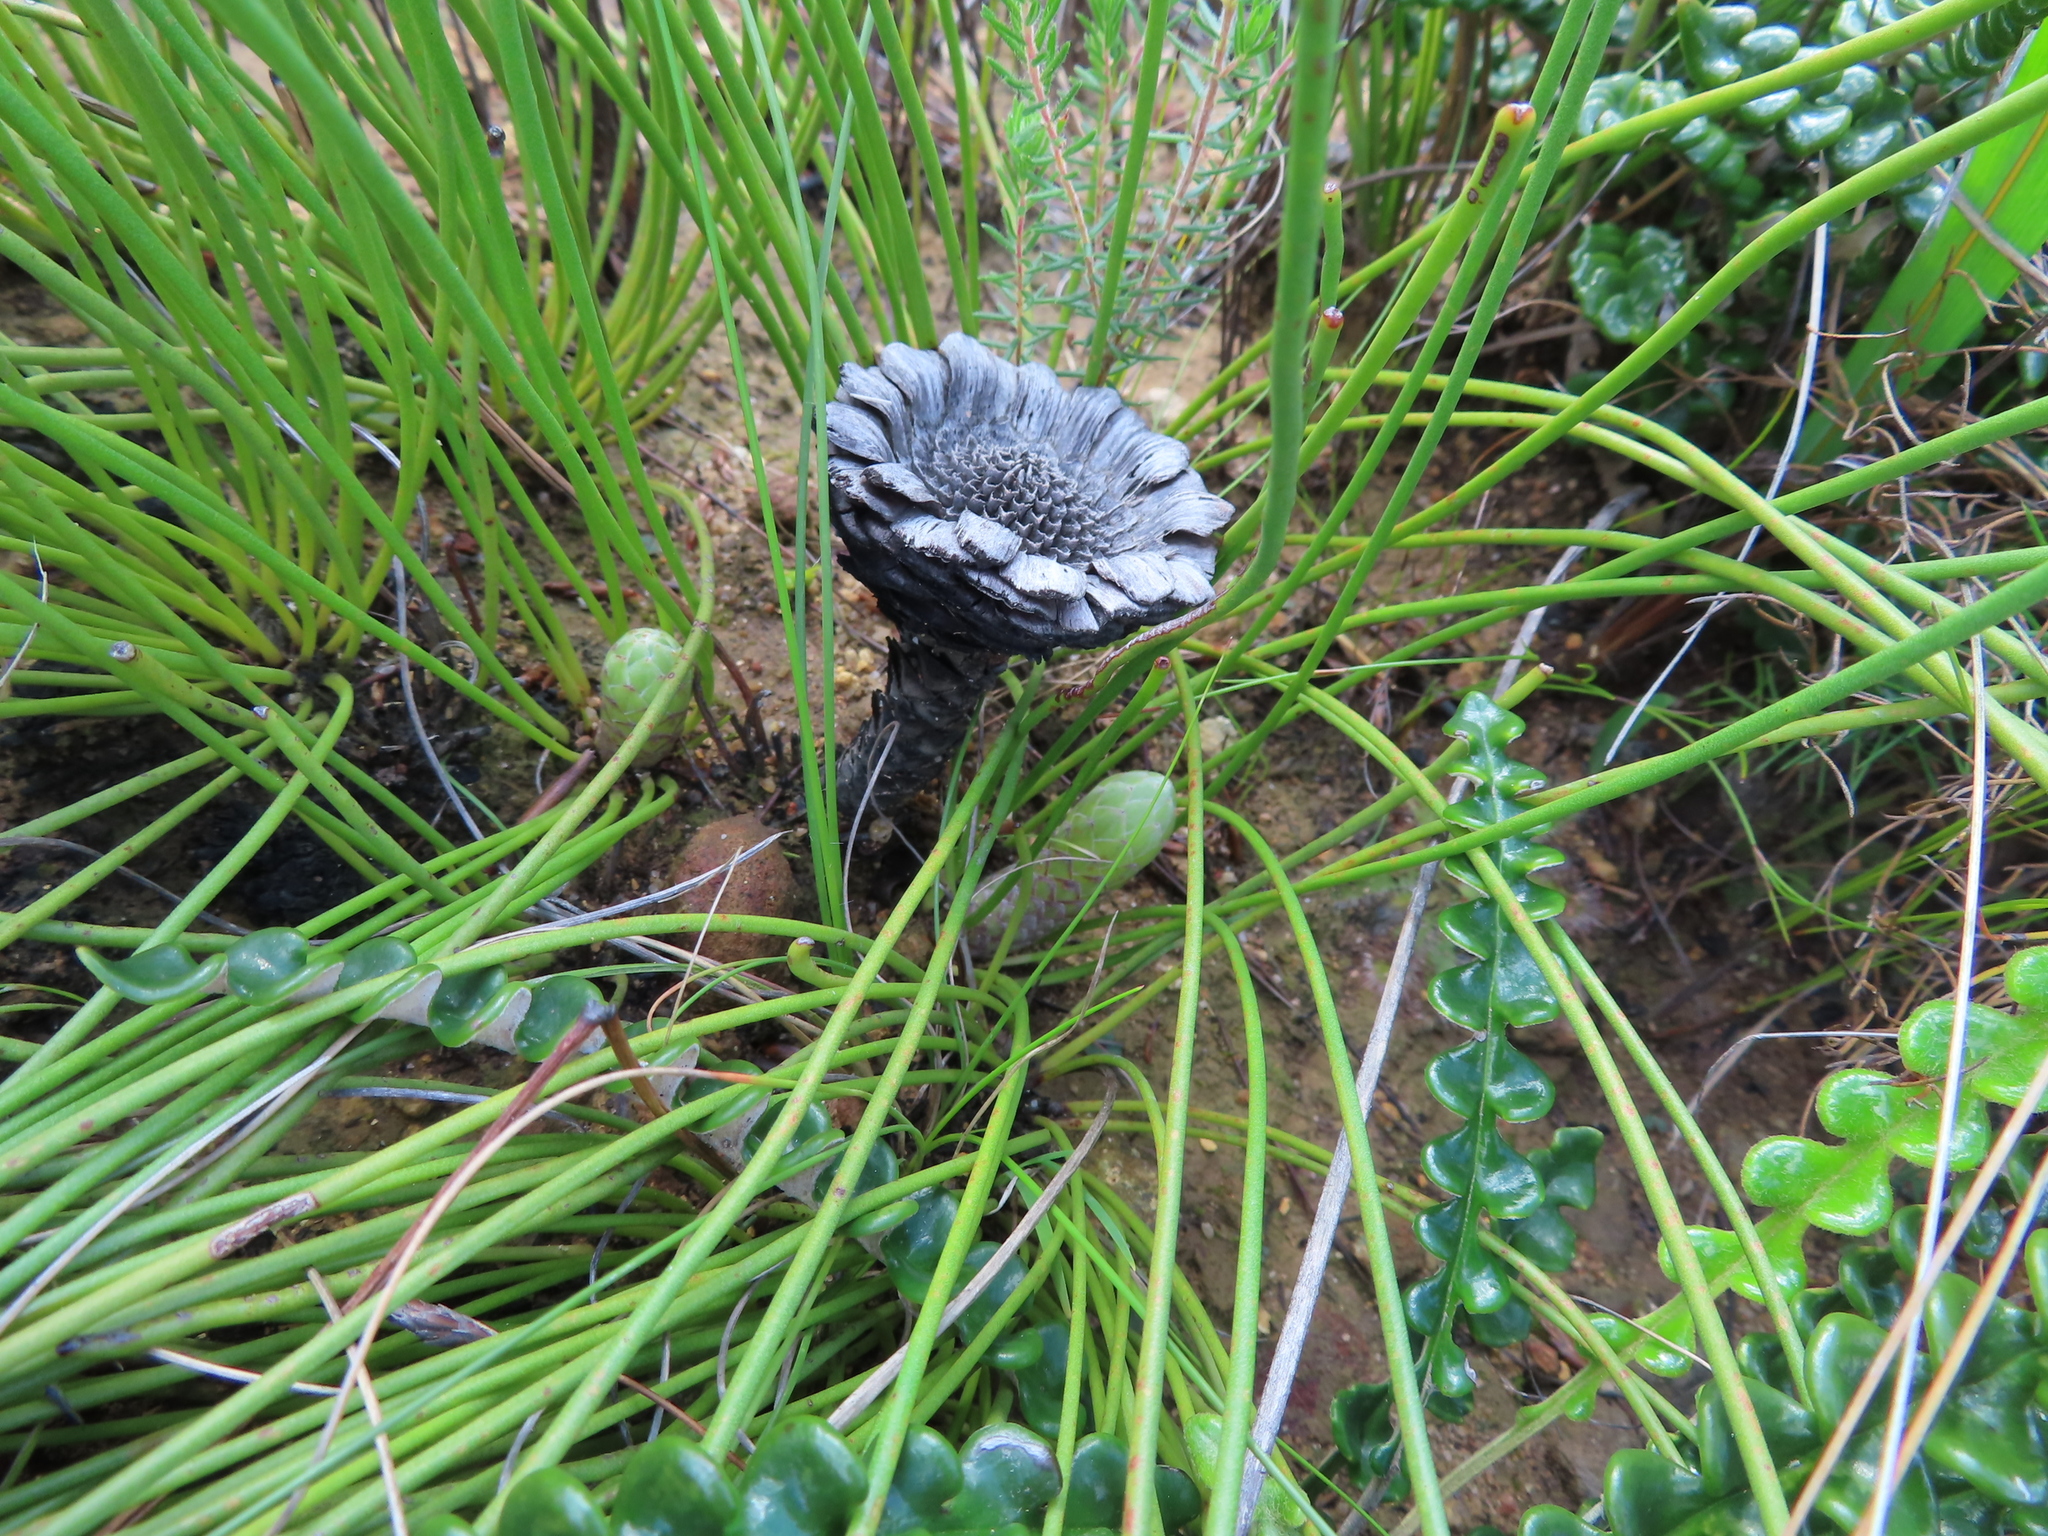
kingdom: Plantae
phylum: Tracheophyta
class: Magnoliopsida
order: Proteales
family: Proteaceae
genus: Protea
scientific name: Protea lorea
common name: Thong-leaf sugarbush
